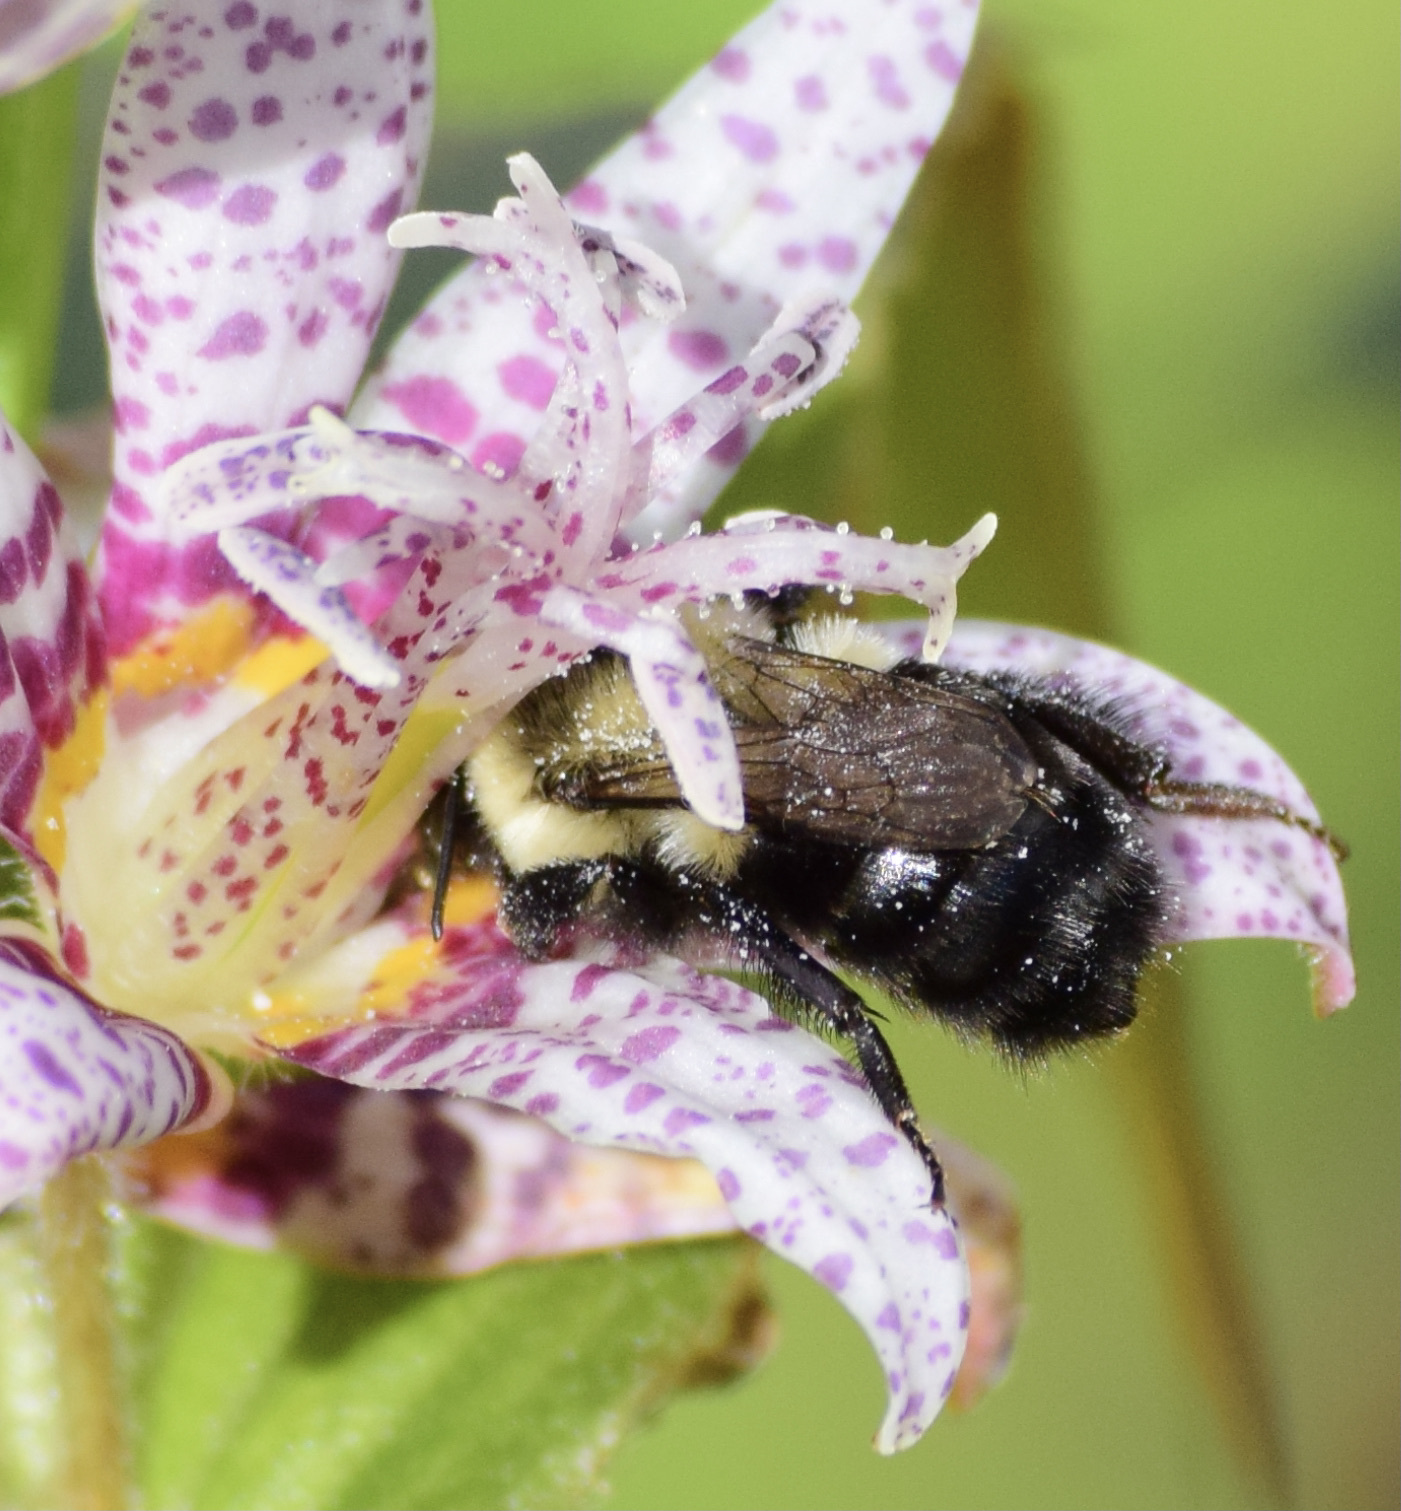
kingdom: Animalia
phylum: Arthropoda
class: Insecta
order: Hymenoptera
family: Apidae
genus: Bombus
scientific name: Bombus impatiens
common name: Common eastern bumble bee
